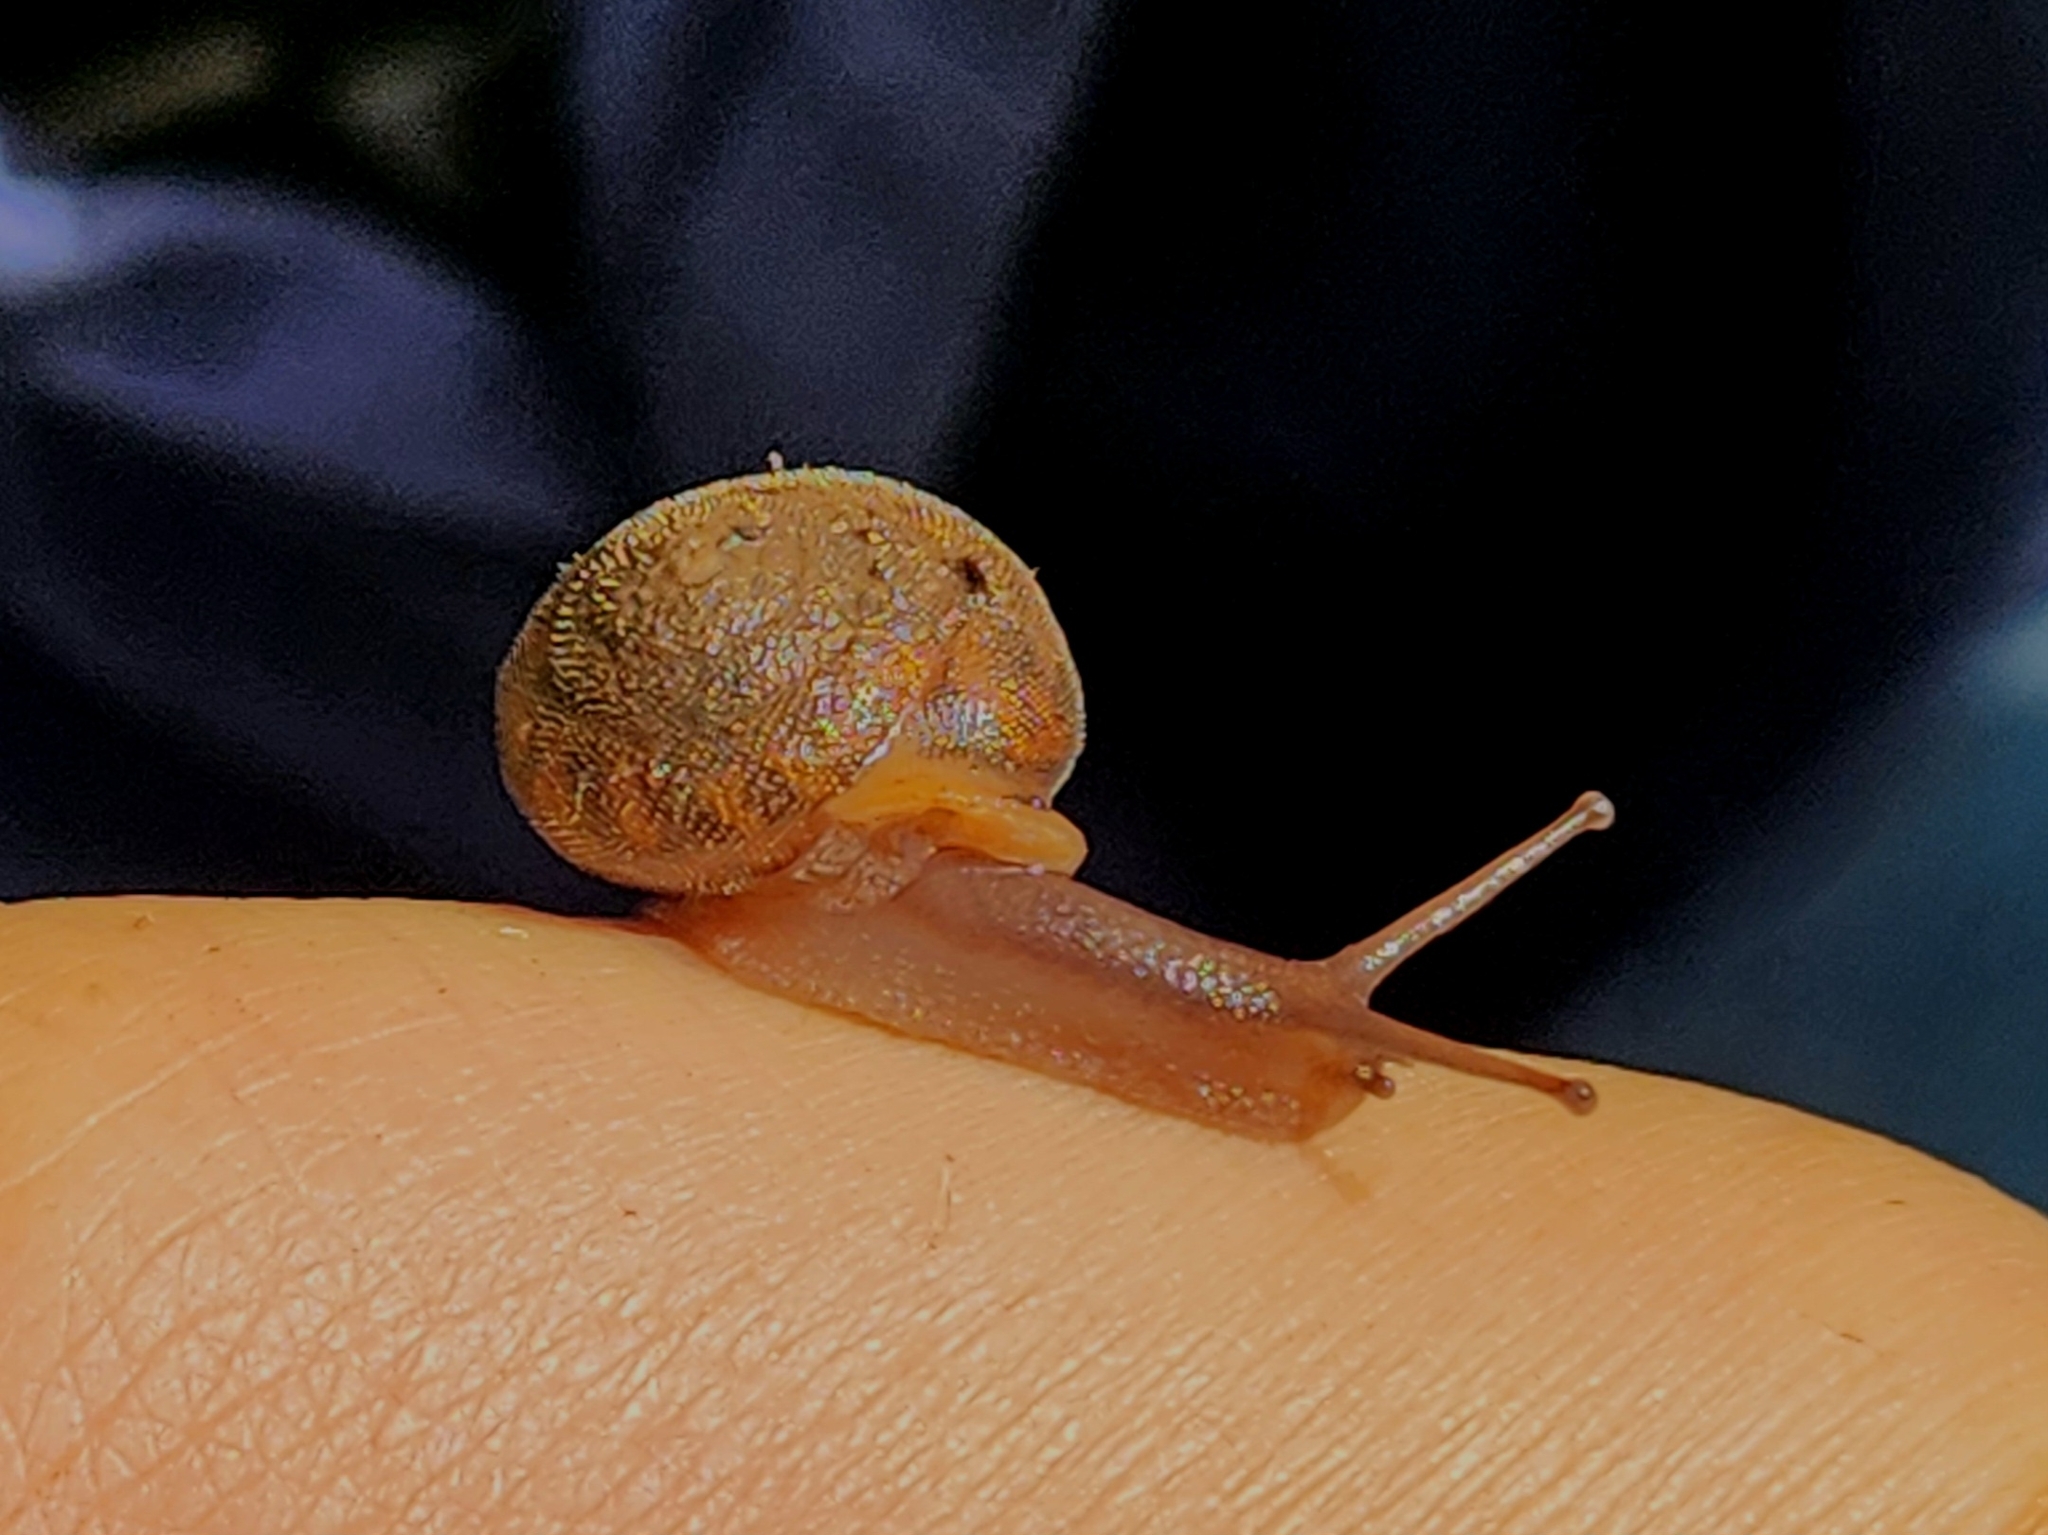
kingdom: Animalia
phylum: Mollusca
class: Gastropoda
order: Stylommatophora
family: Polygyridae
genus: Vespericola
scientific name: Vespericola columbianus
